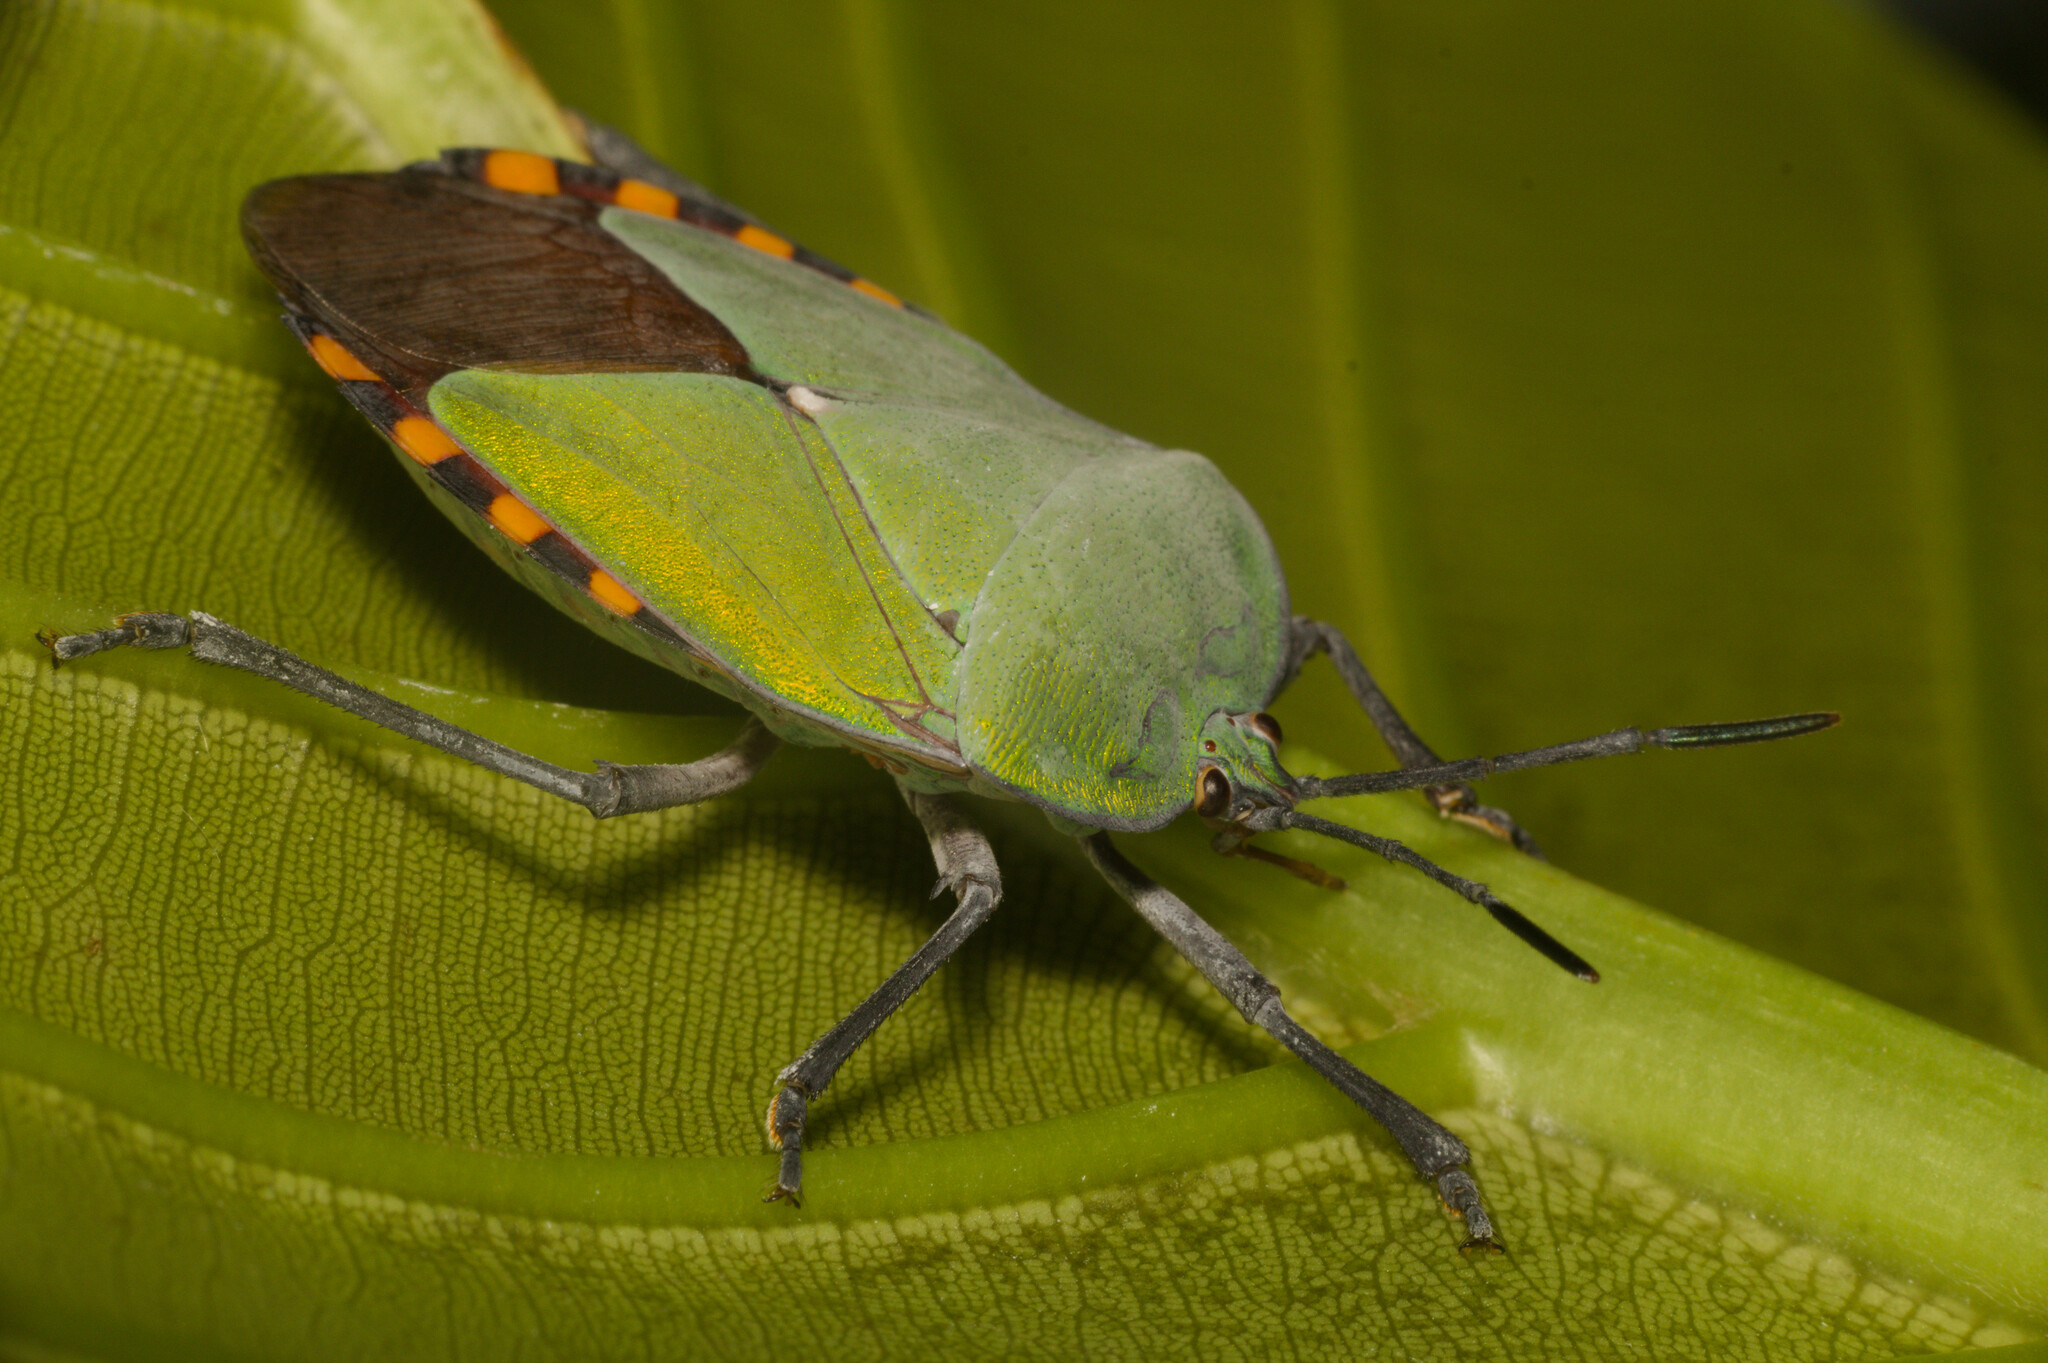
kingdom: Animalia
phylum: Arthropoda
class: Insecta
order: Hemiptera
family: Tessaratomidae
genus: Pycanum
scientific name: Pycanum alternatum
